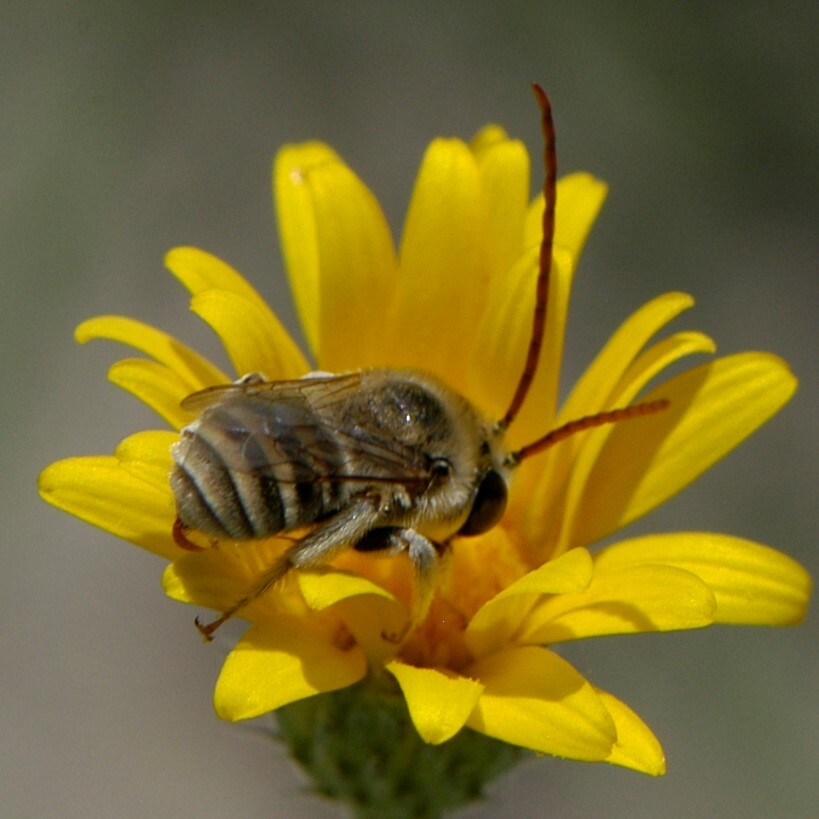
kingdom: Animalia
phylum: Arthropoda
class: Insecta
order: Hymenoptera
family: Apidae
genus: Tetraloniella
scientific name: Tetraloniella eriocarpi
